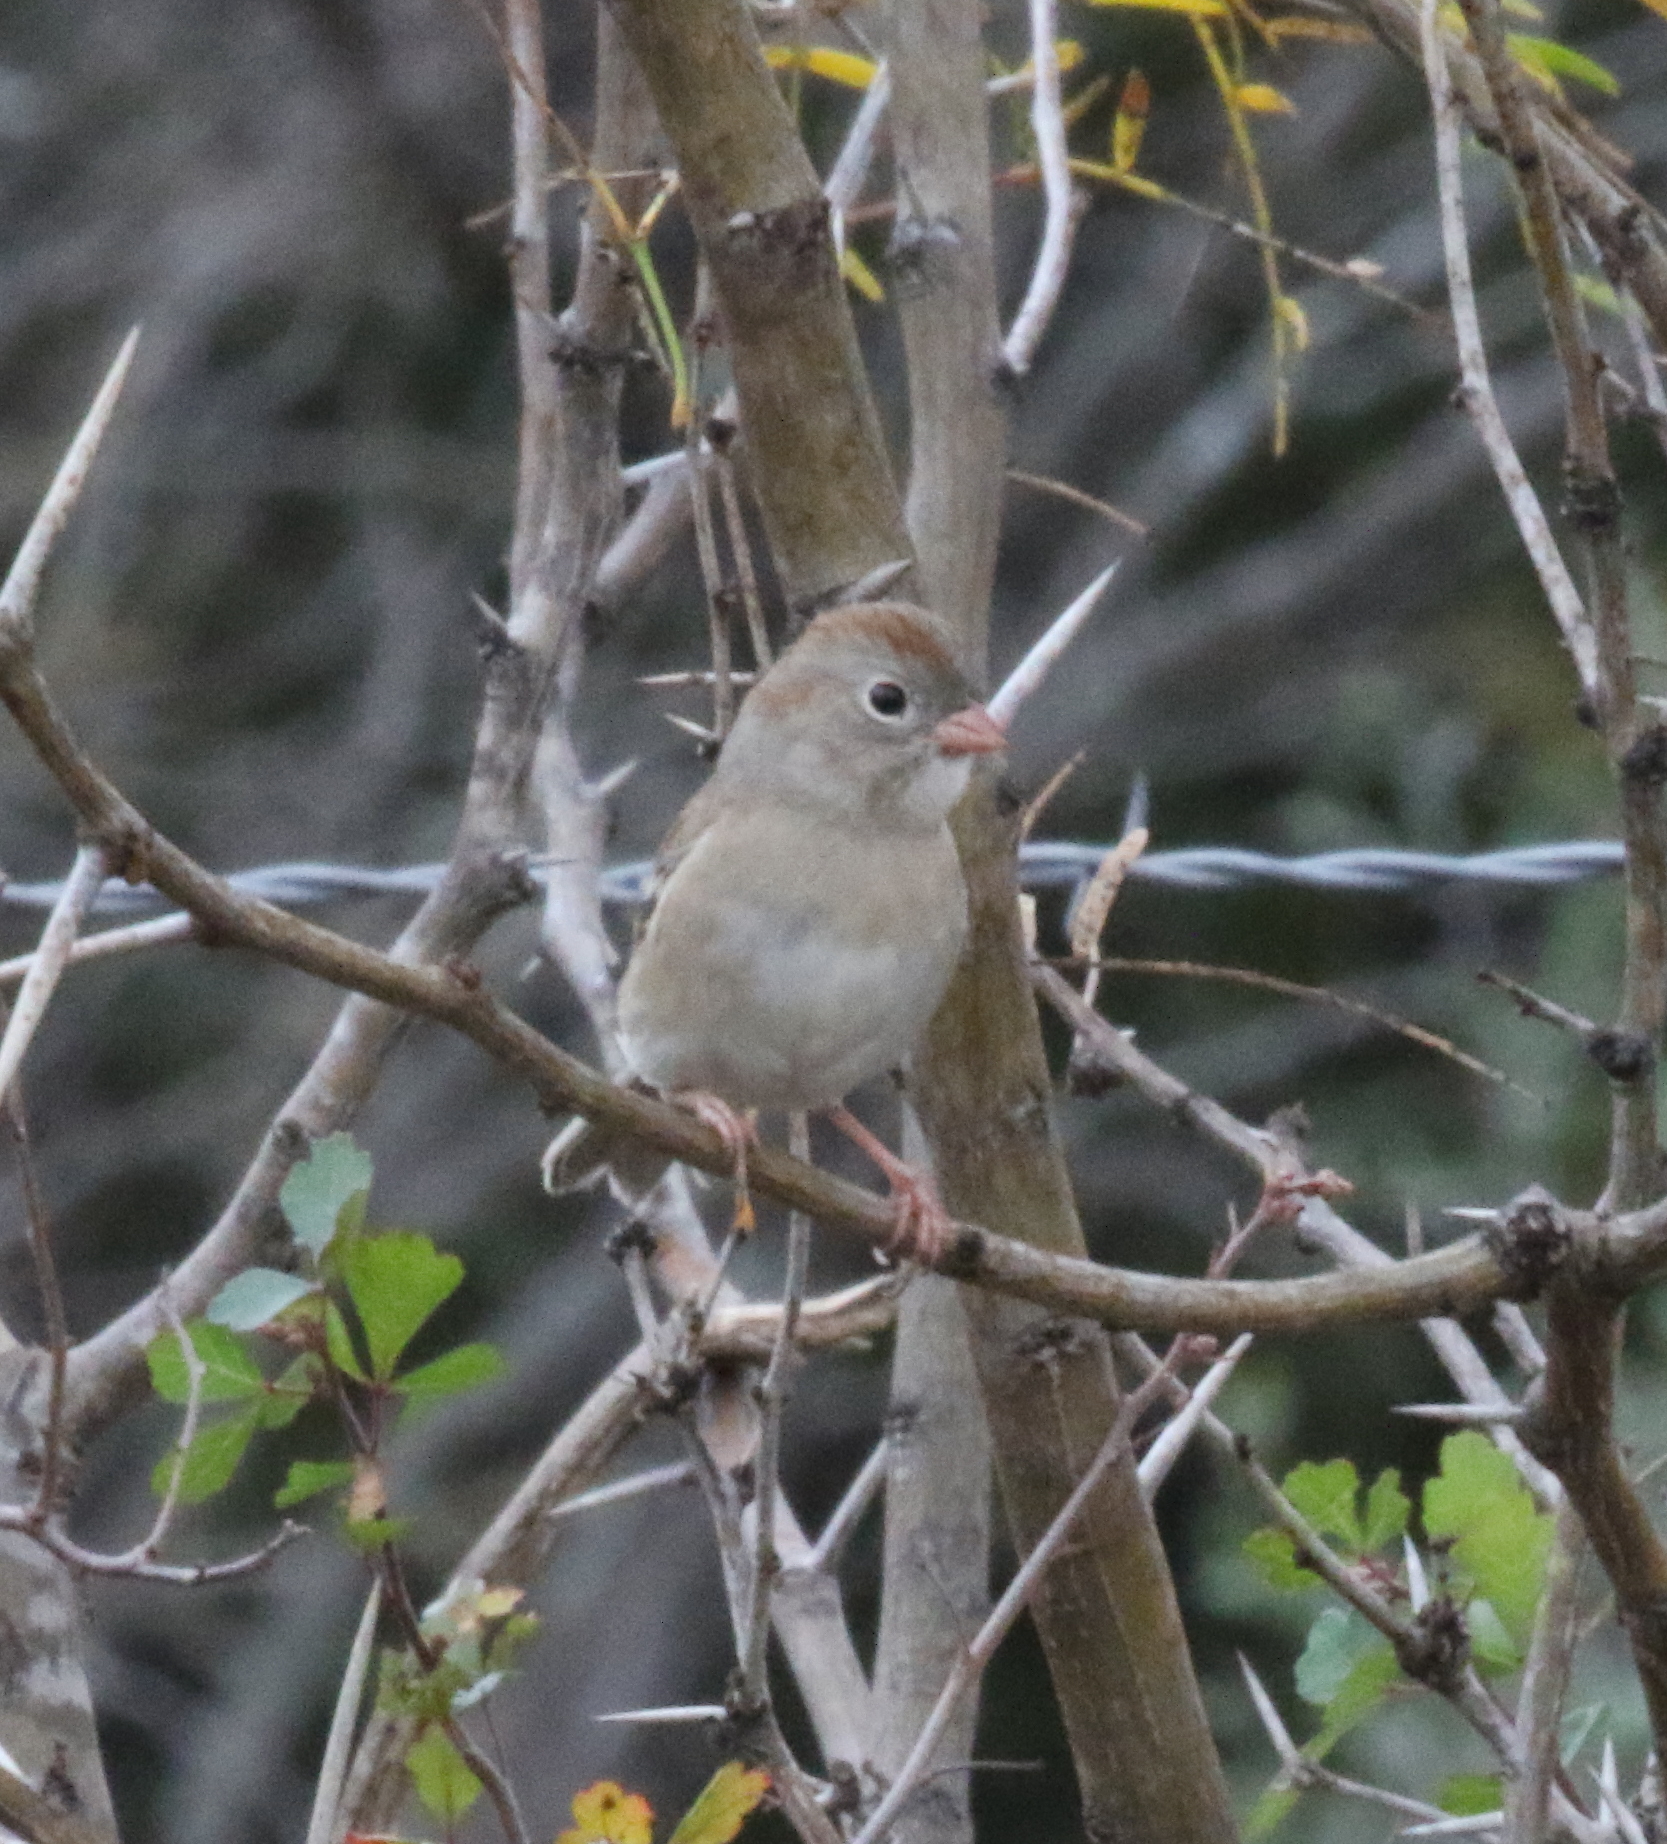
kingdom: Animalia
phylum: Chordata
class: Aves
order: Passeriformes
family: Passerellidae
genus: Spizella
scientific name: Spizella pusilla
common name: Field sparrow
